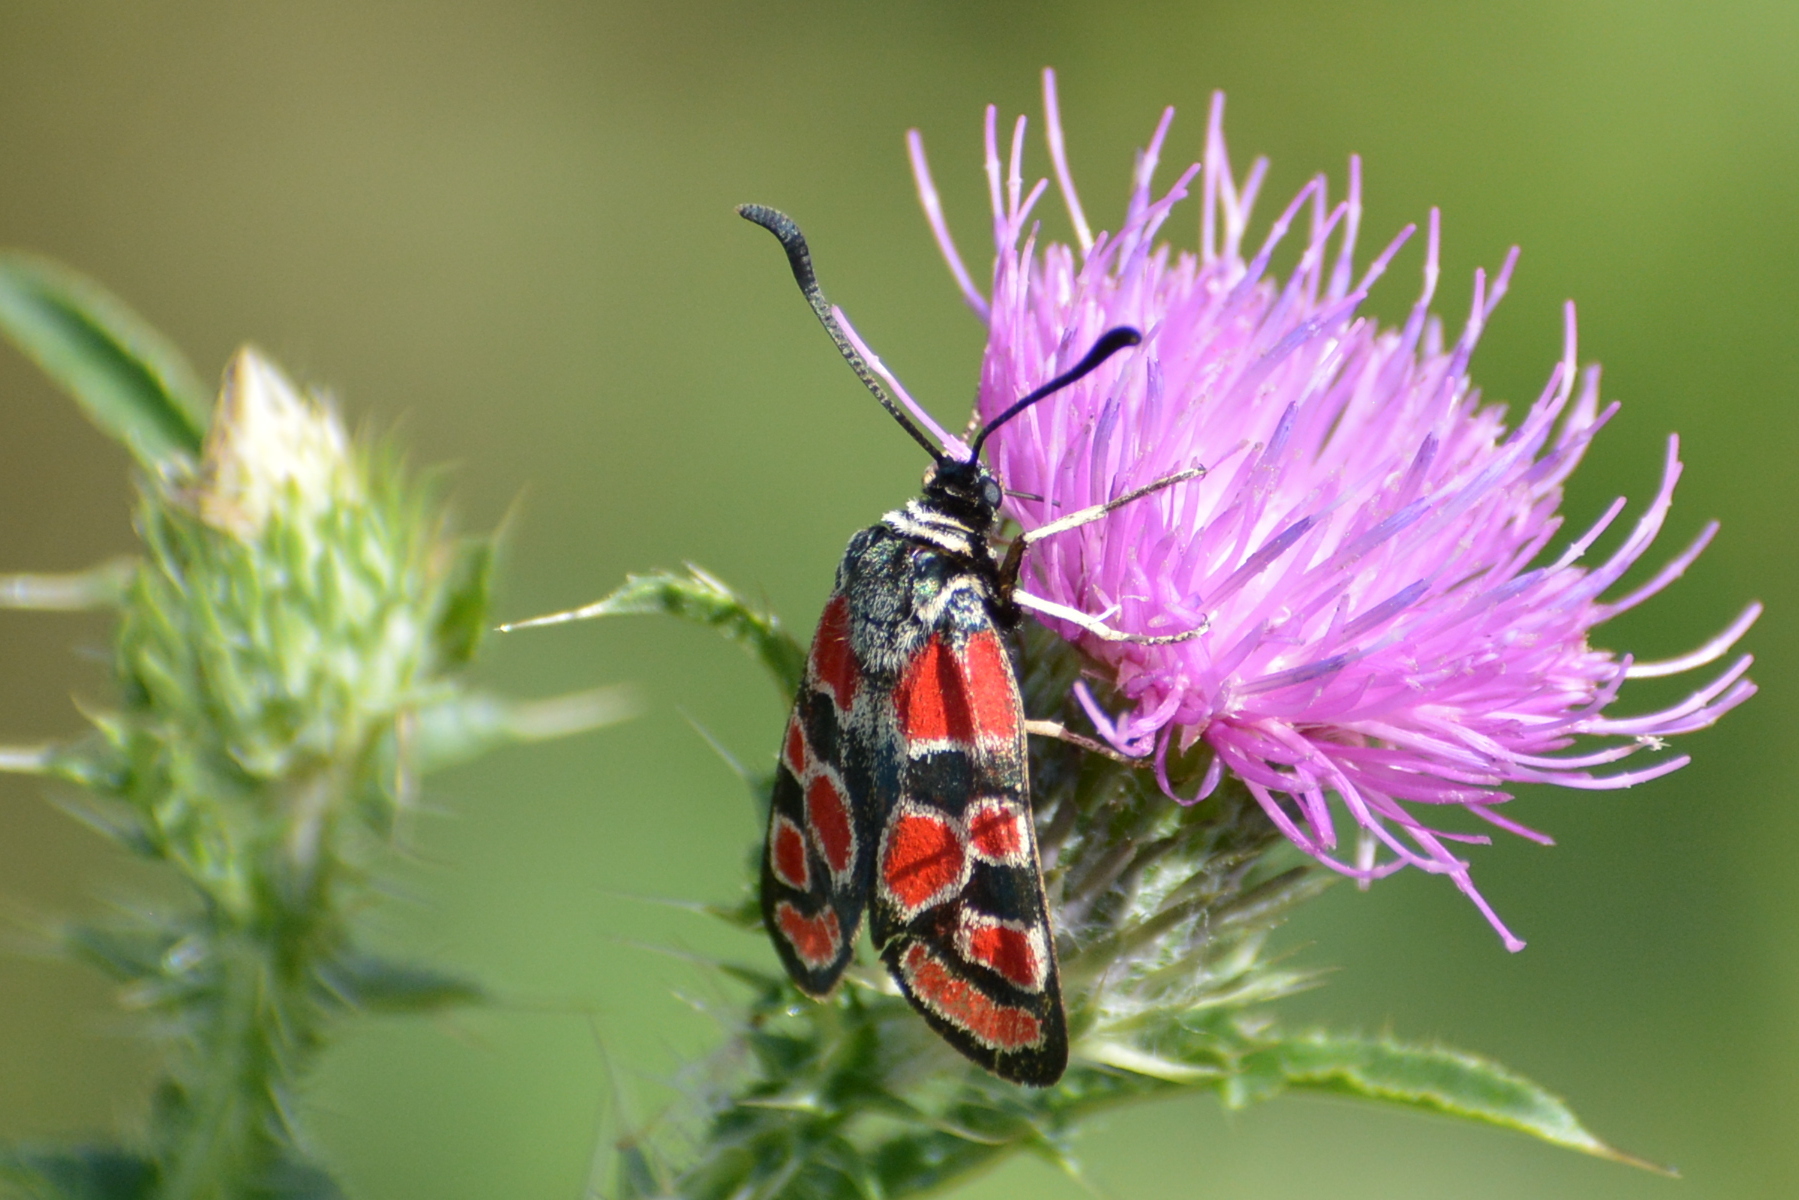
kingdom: Animalia
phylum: Arthropoda
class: Insecta
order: Lepidoptera
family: Zygaenidae
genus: Zygaena
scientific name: Zygaena carniolica
